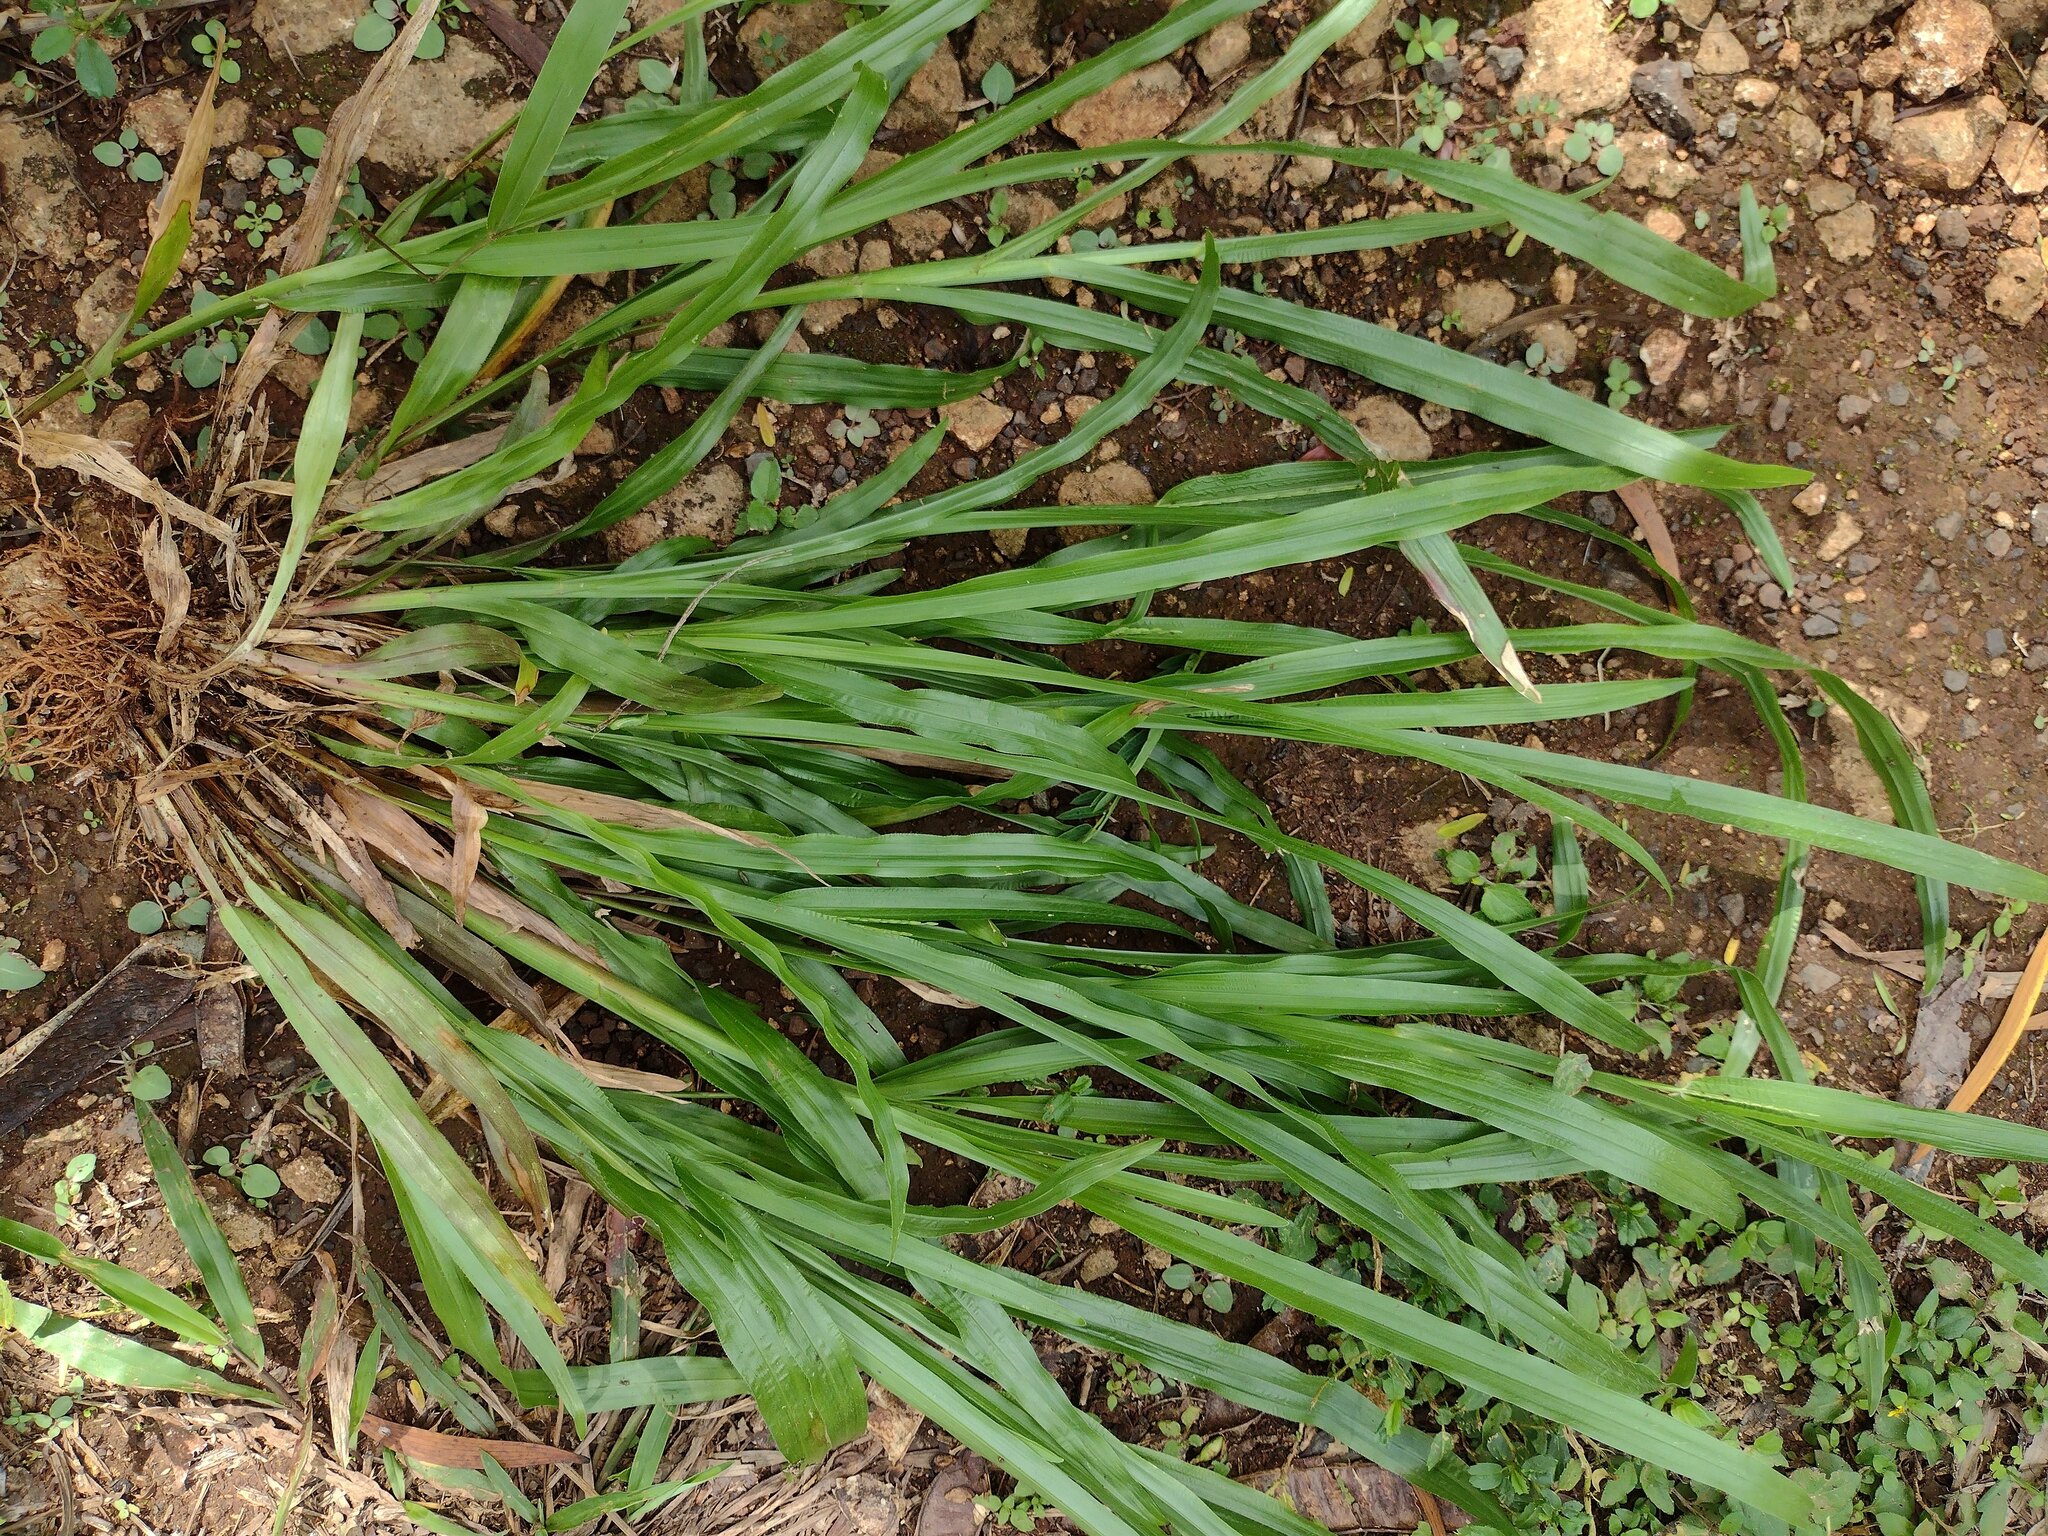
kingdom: Plantae
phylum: Tracheophyta
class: Liliopsida
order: Poales
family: Poaceae
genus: Axonopus
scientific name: Axonopus compressus
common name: American carpet grass
